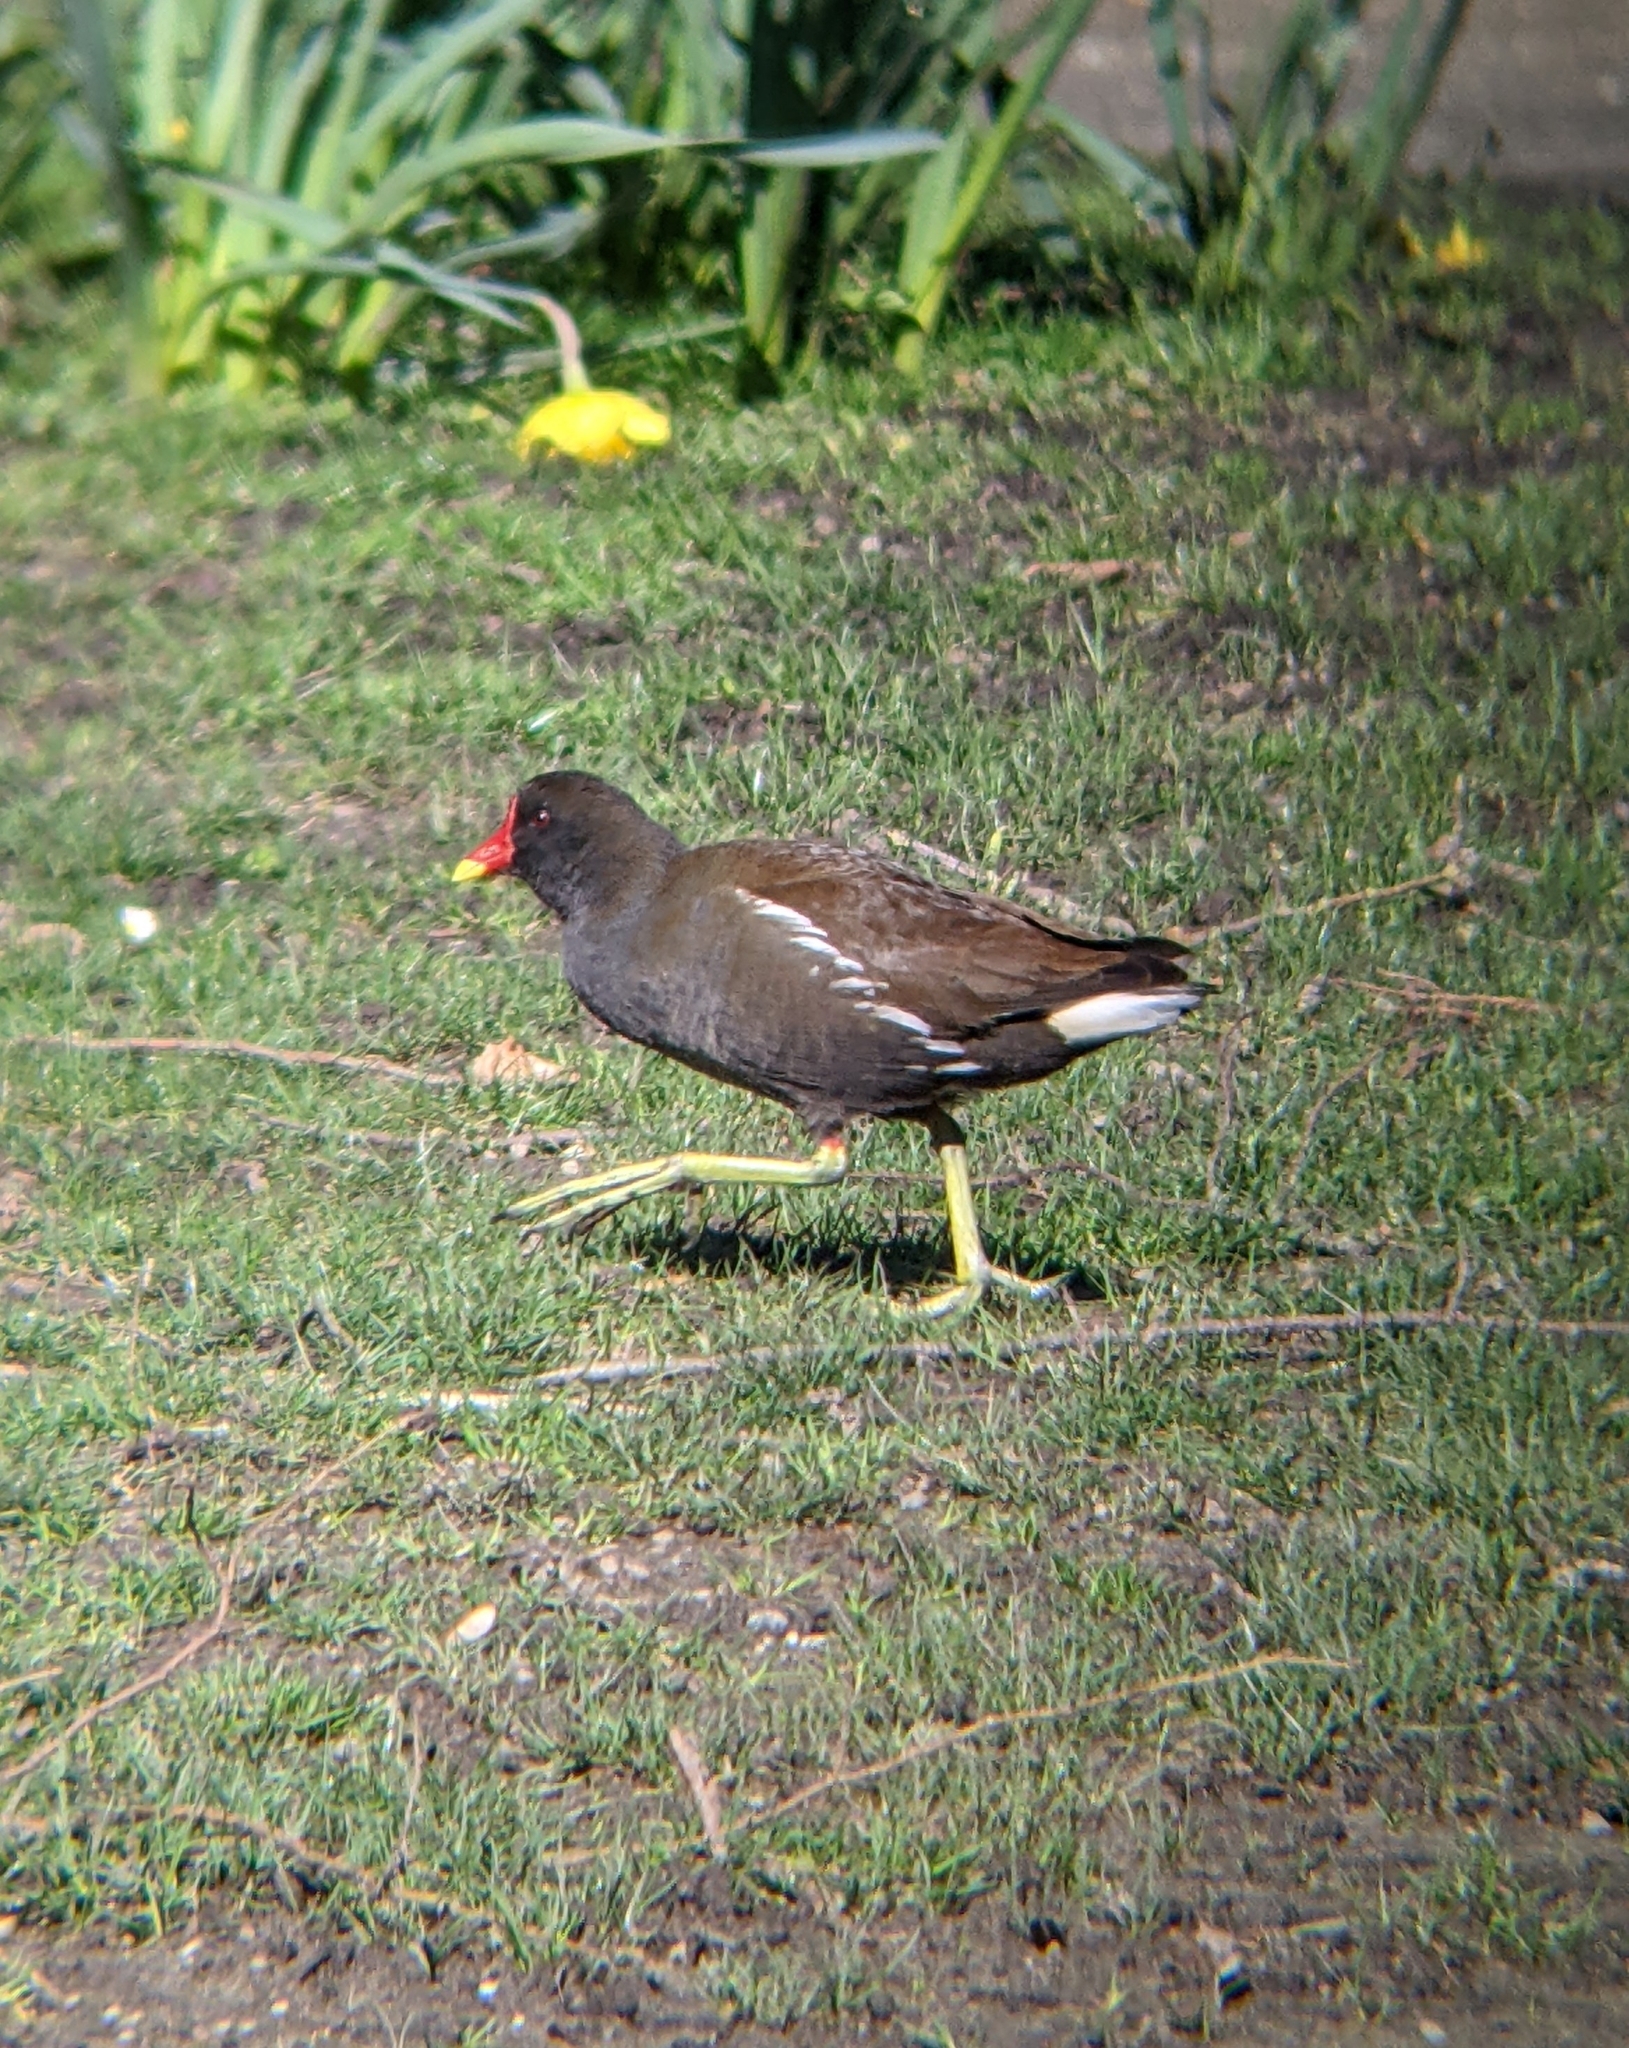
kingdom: Animalia
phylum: Chordata
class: Aves
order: Gruiformes
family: Rallidae
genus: Gallinula
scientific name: Gallinula chloropus
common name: Common moorhen
